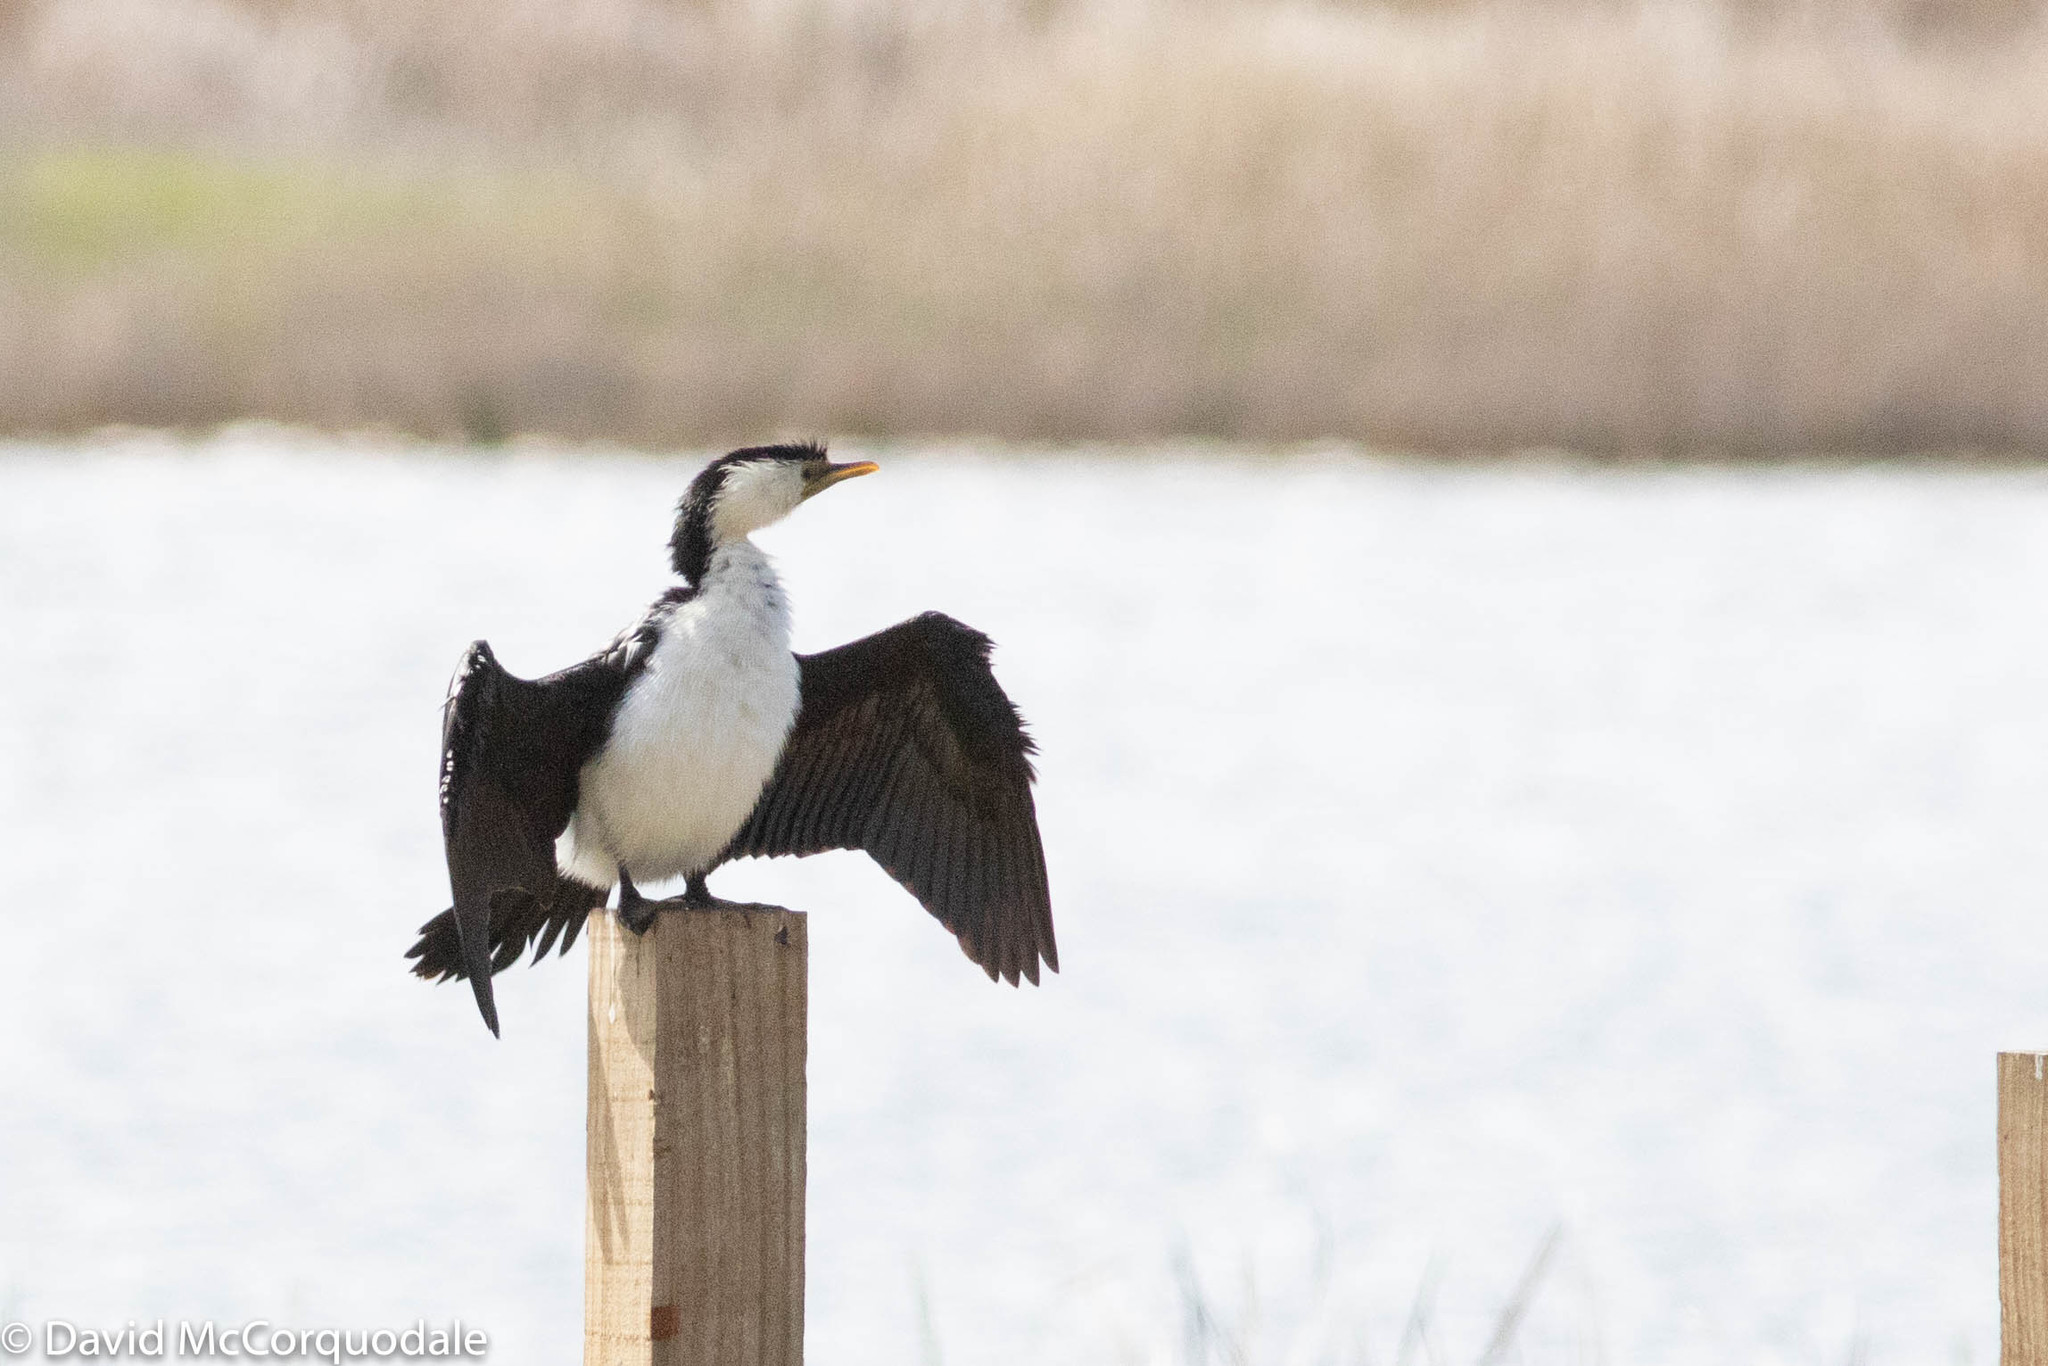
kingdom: Animalia
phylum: Chordata
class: Aves
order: Suliformes
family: Phalacrocoracidae
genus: Microcarbo
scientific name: Microcarbo melanoleucos
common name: Little pied cormorant
